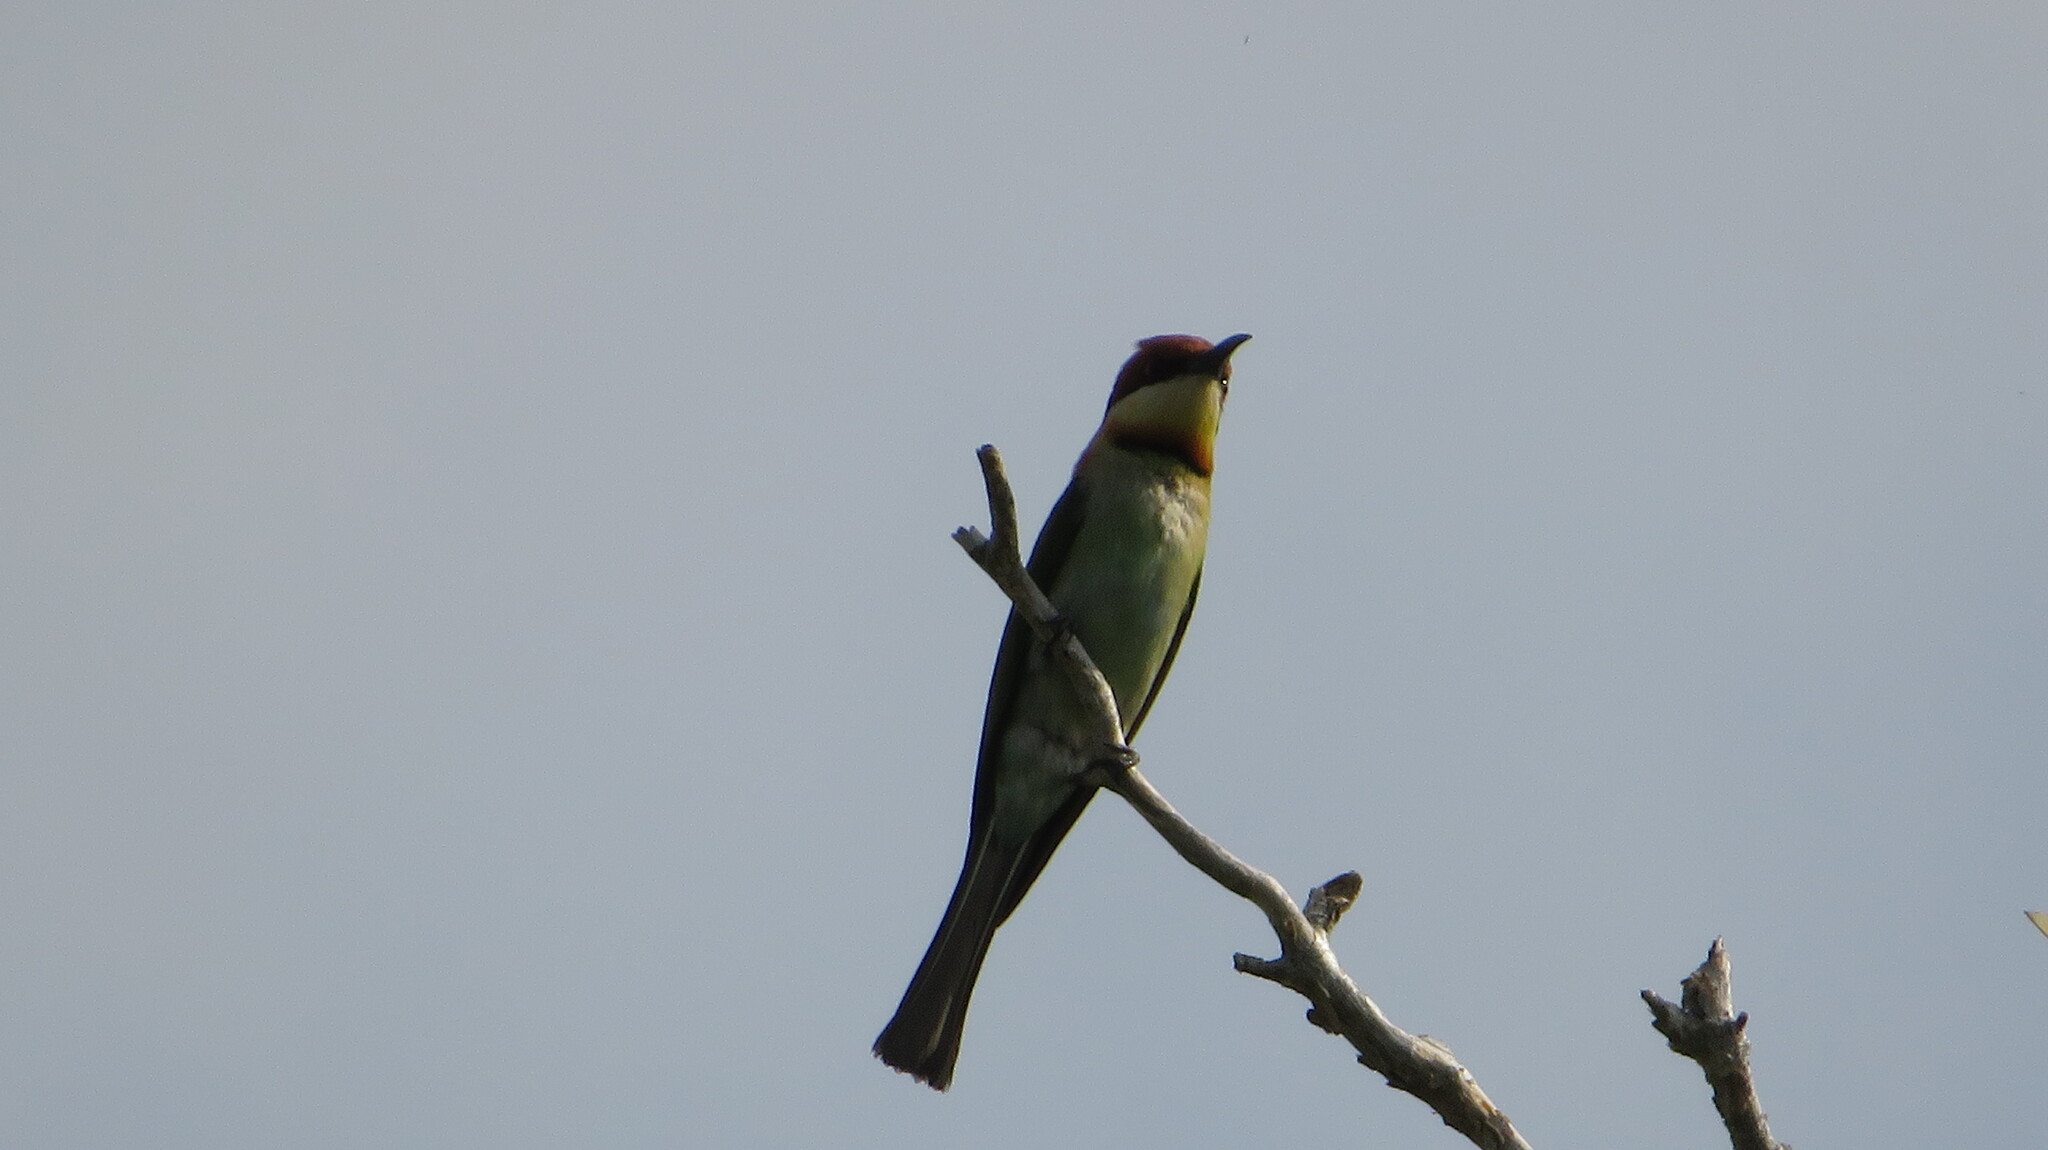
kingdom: Animalia
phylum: Chordata
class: Aves
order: Coraciiformes
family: Meropidae
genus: Merops
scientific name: Merops leschenaulti
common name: Chestnut-headed bee-eater
